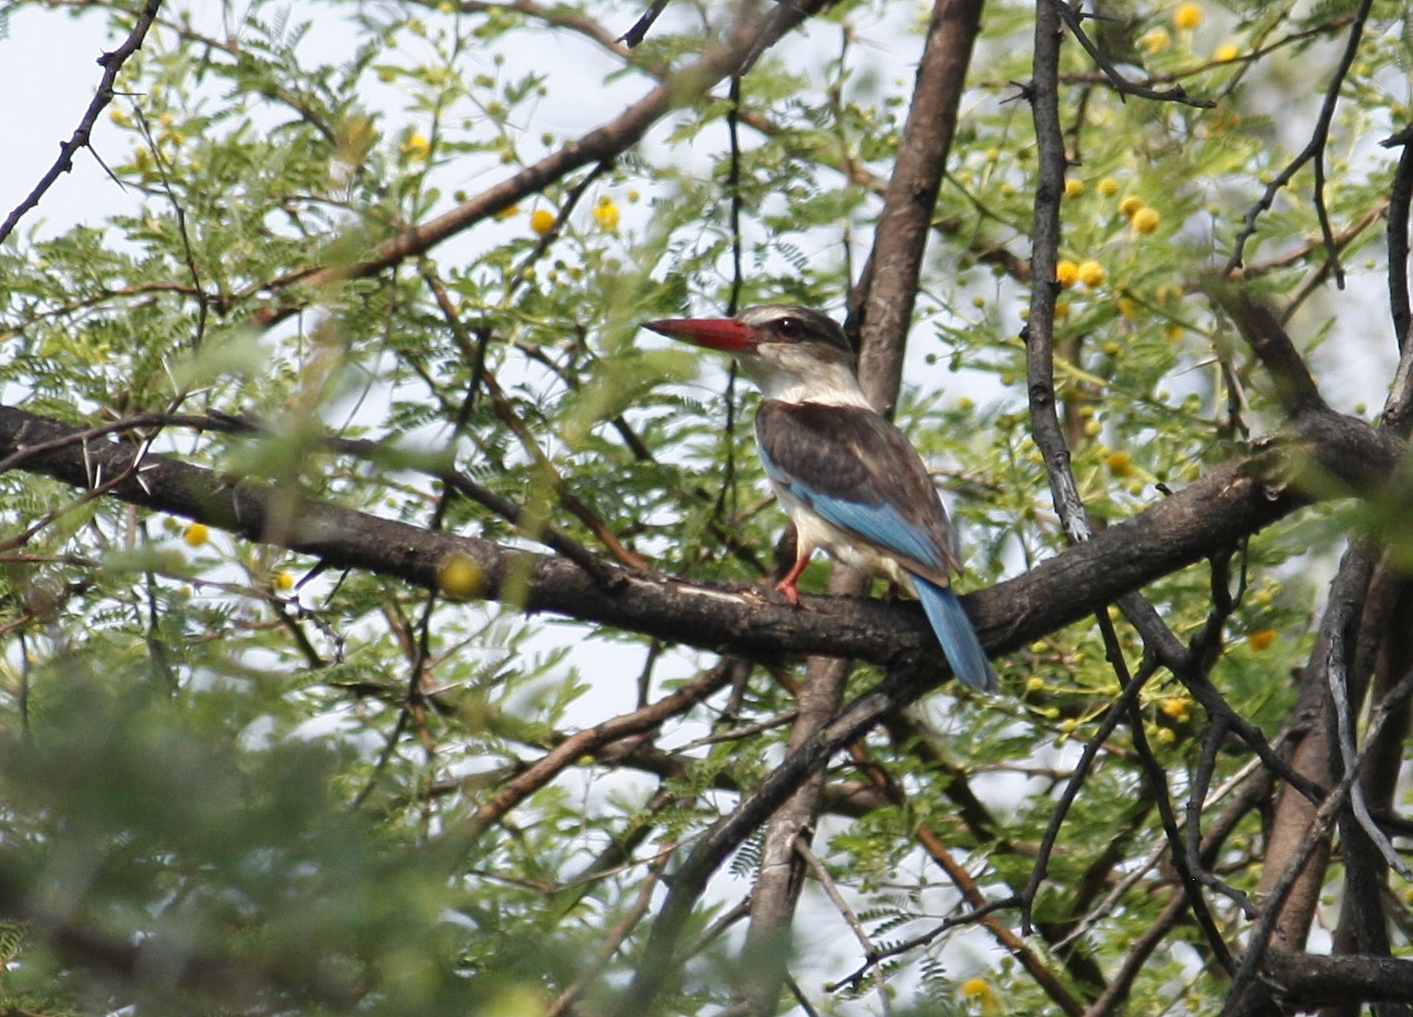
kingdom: Animalia
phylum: Chordata
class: Aves
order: Coraciiformes
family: Alcedinidae
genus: Halcyon
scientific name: Halcyon albiventris
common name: Brown-hooded kingfisher
